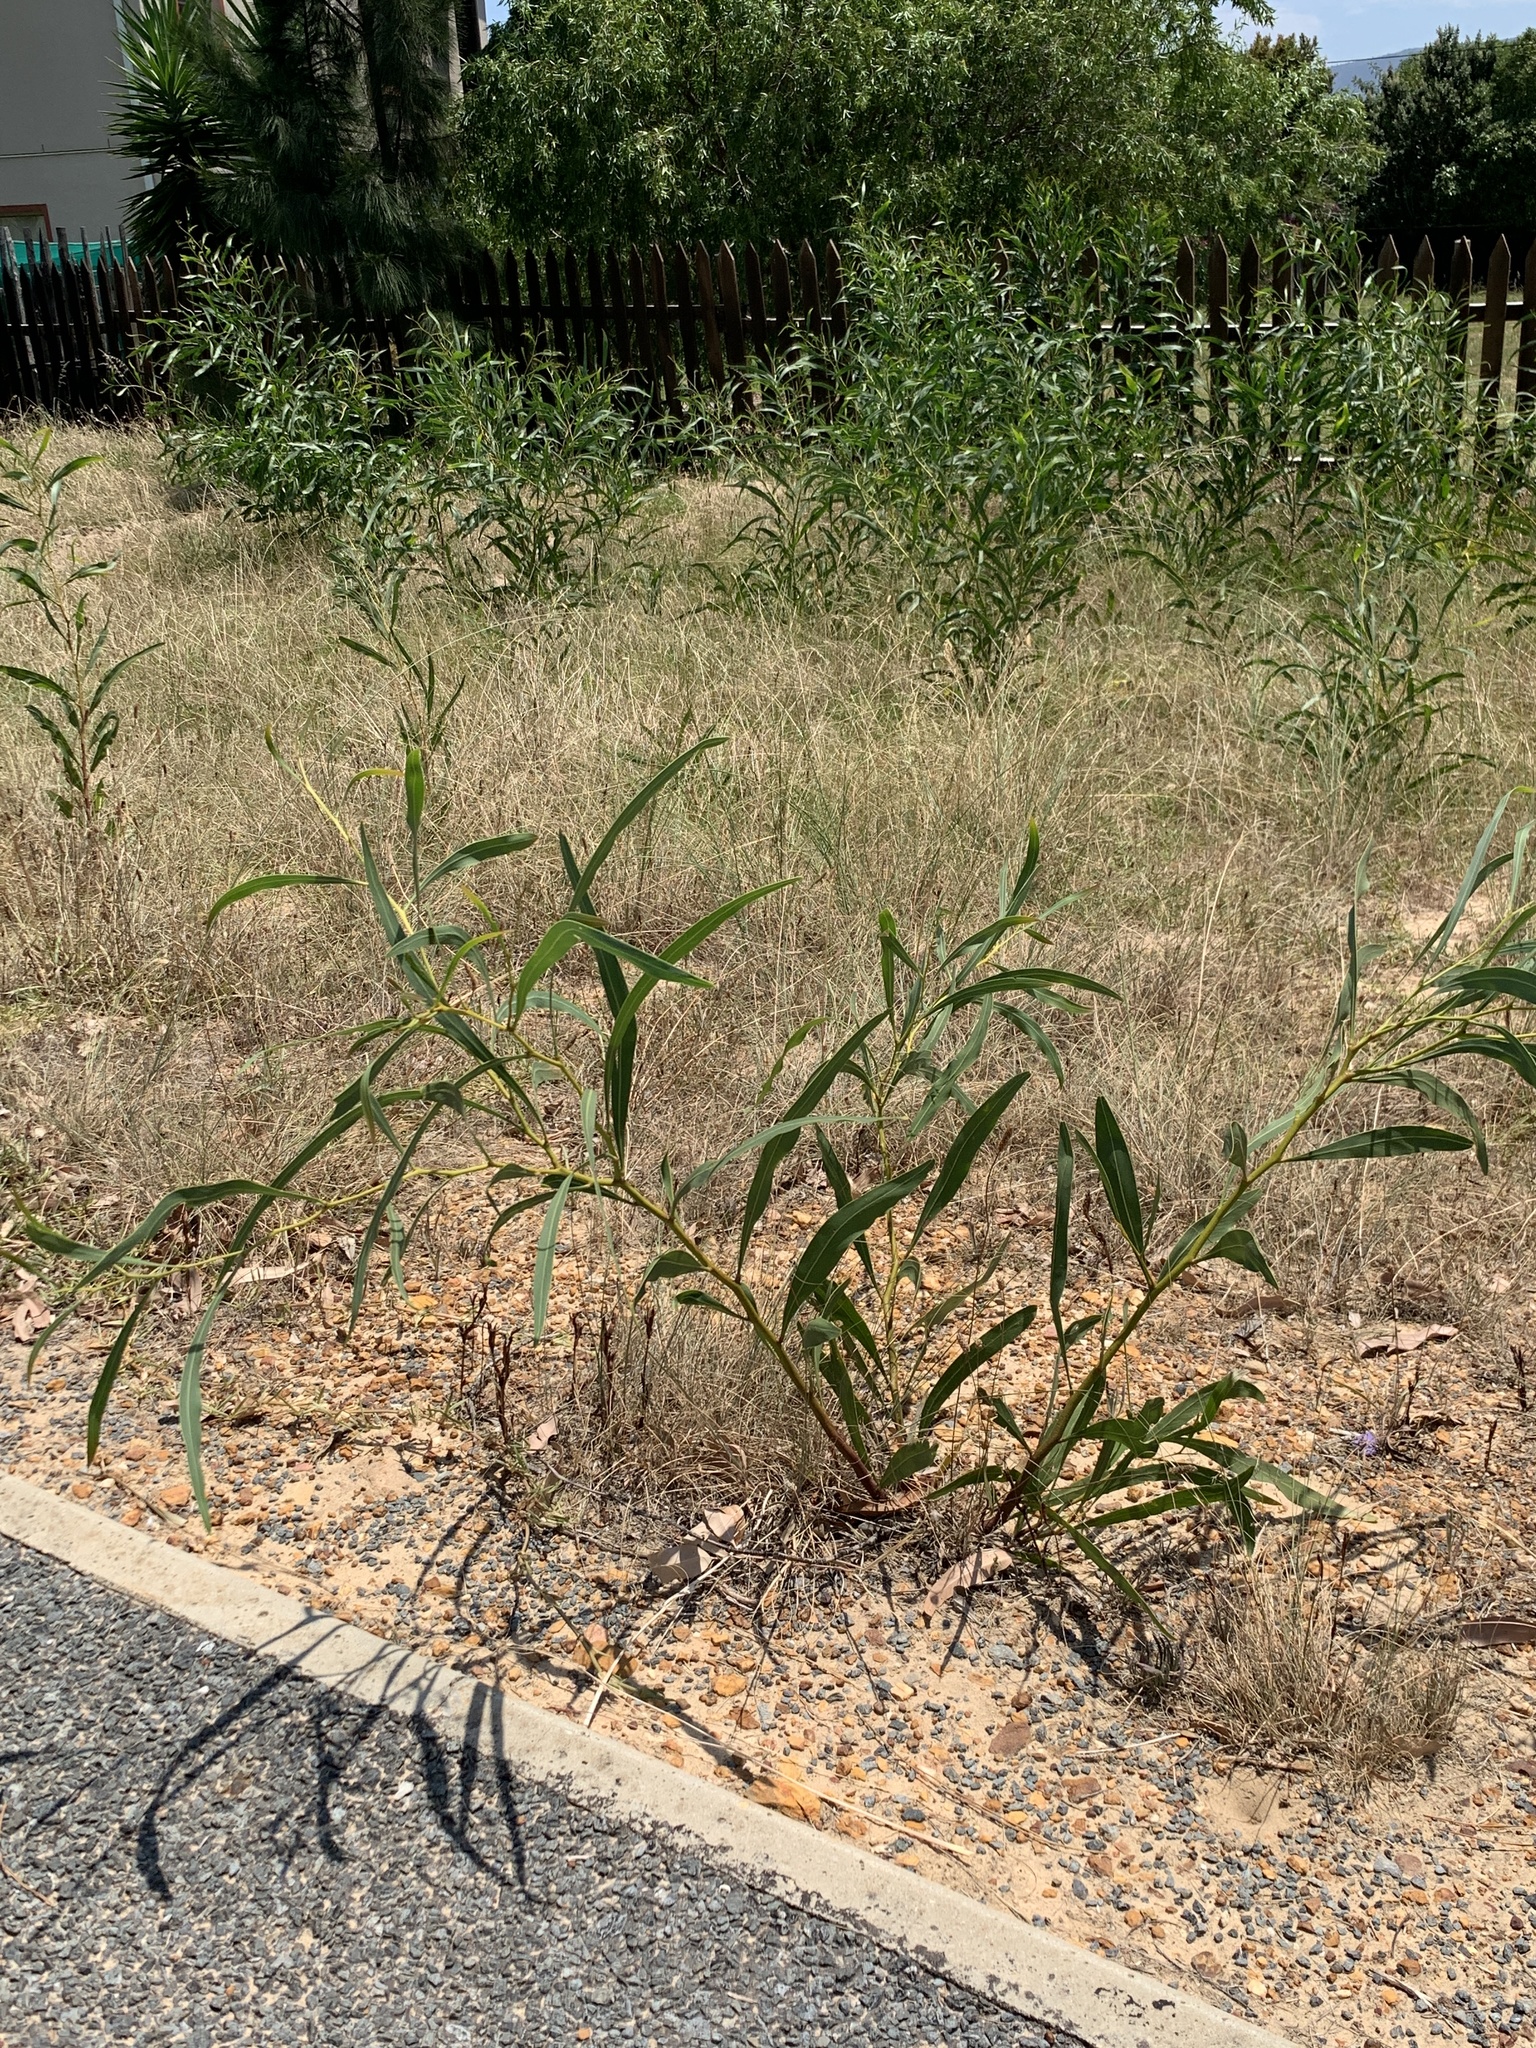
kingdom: Plantae
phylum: Tracheophyta
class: Magnoliopsida
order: Fabales
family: Fabaceae
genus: Acacia
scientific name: Acacia saligna
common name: Orange wattle
